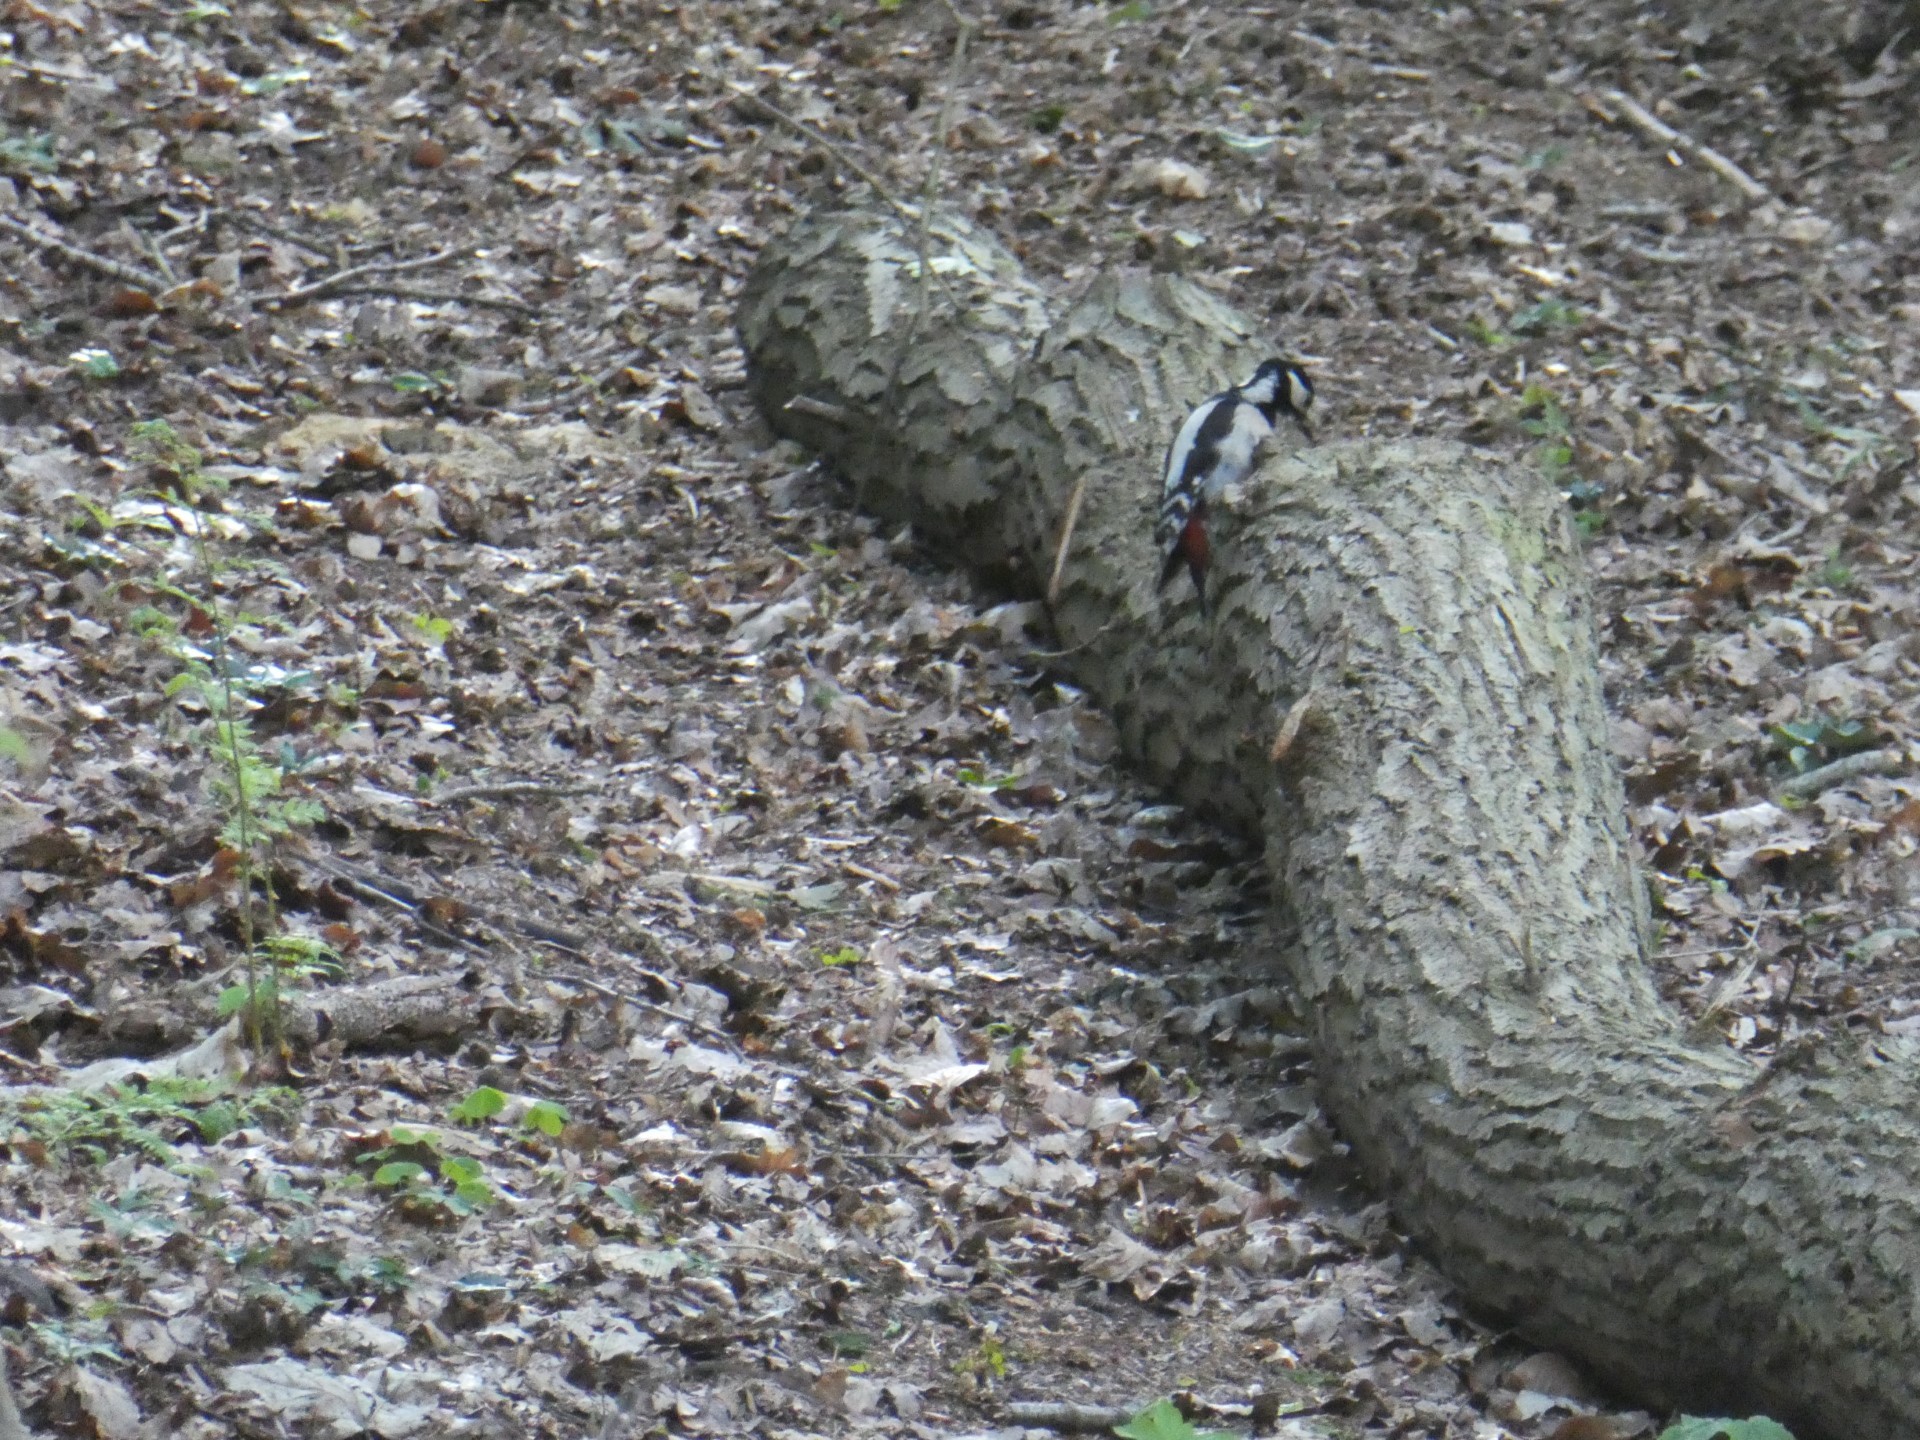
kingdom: Animalia
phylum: Chordata
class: Aves
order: Piciformes
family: Picidae
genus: Dendrocopos
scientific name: Dendrocopos major
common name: Great spotted woodpecker
